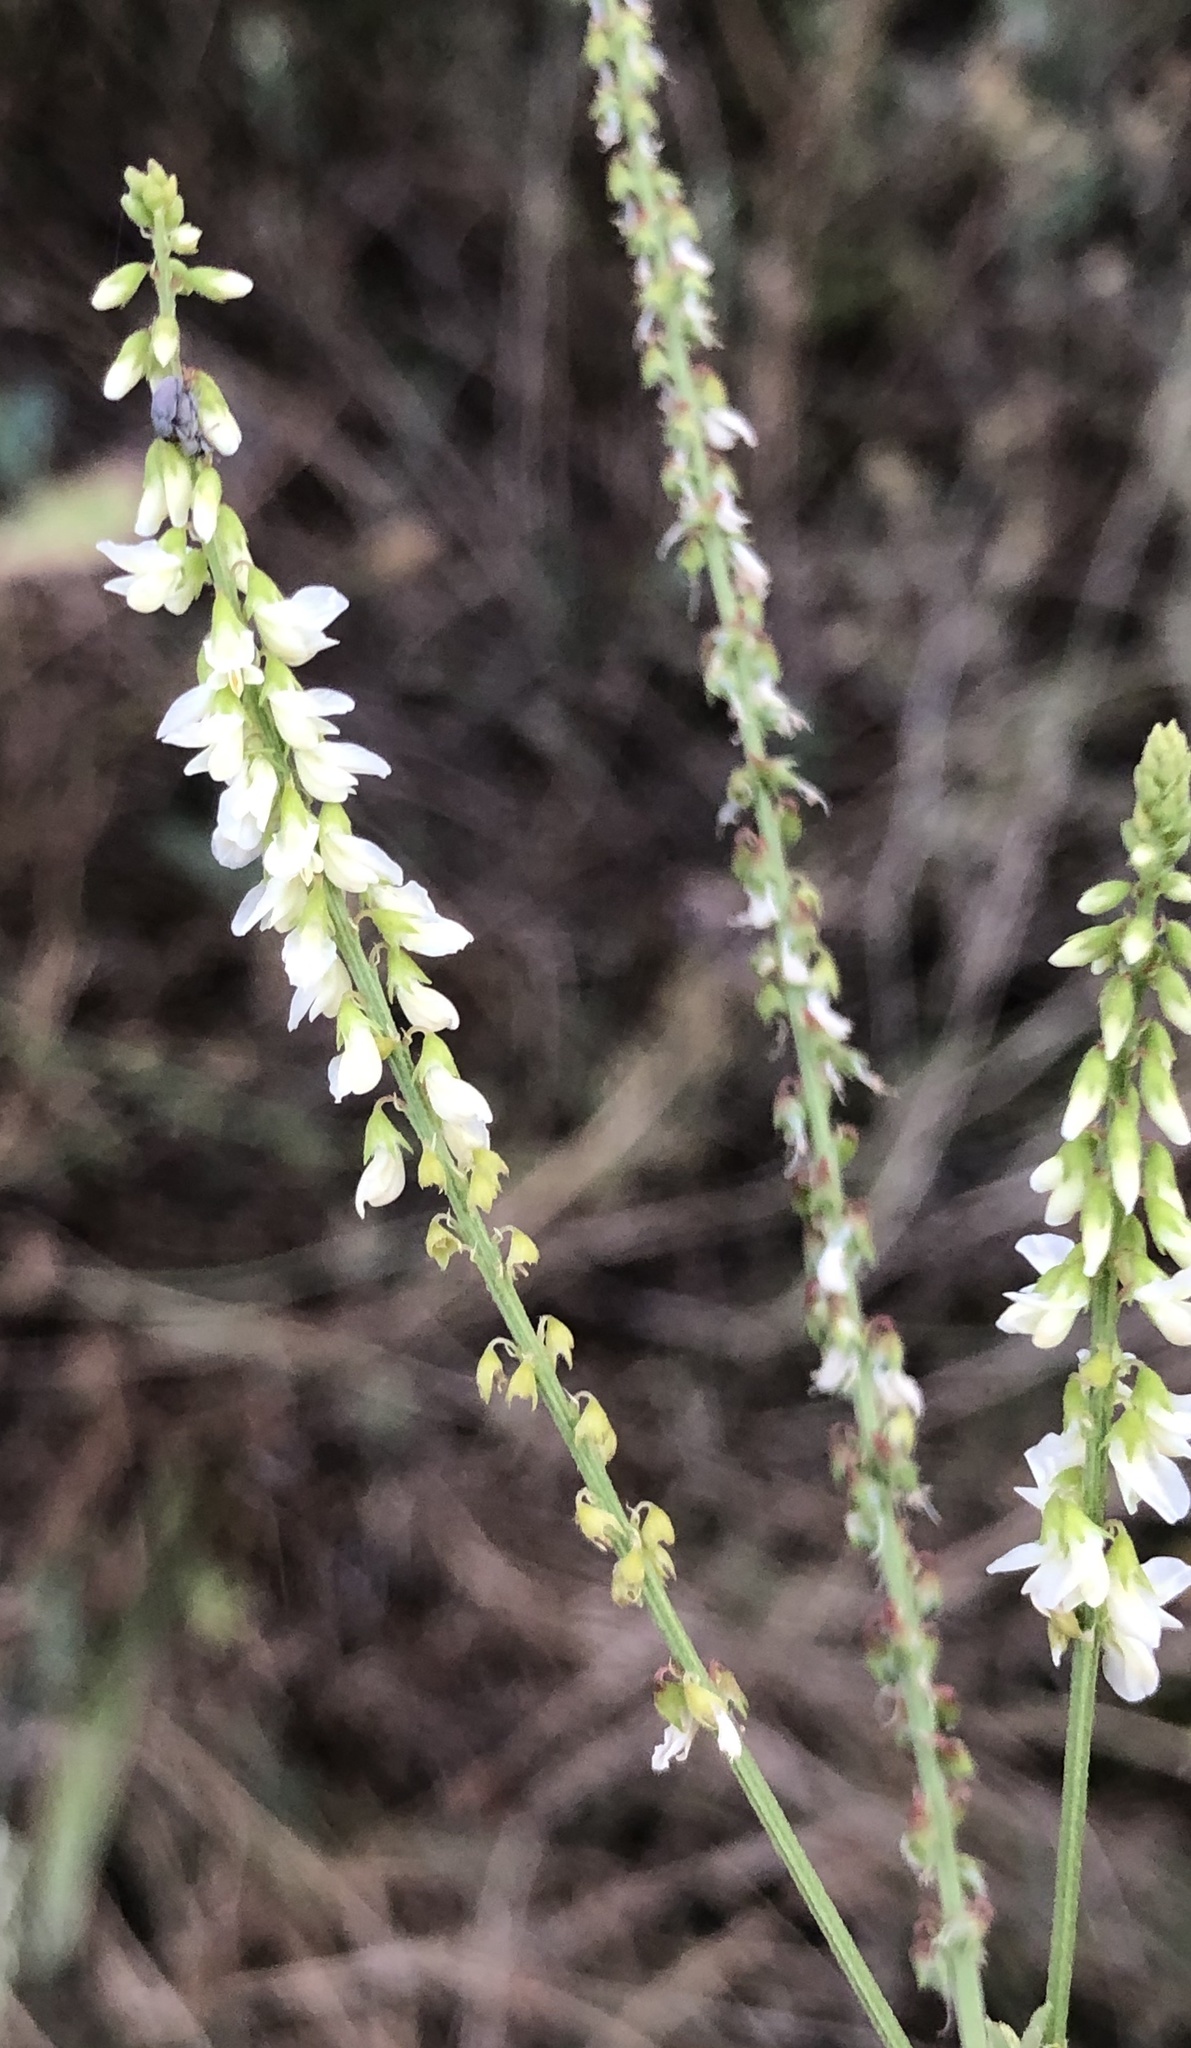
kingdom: Plantae
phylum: Tracheophyta
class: Magnoliopsida
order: Fabales
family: Fabaceae
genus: Melilotus
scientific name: Melilotus albus
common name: White melilot
